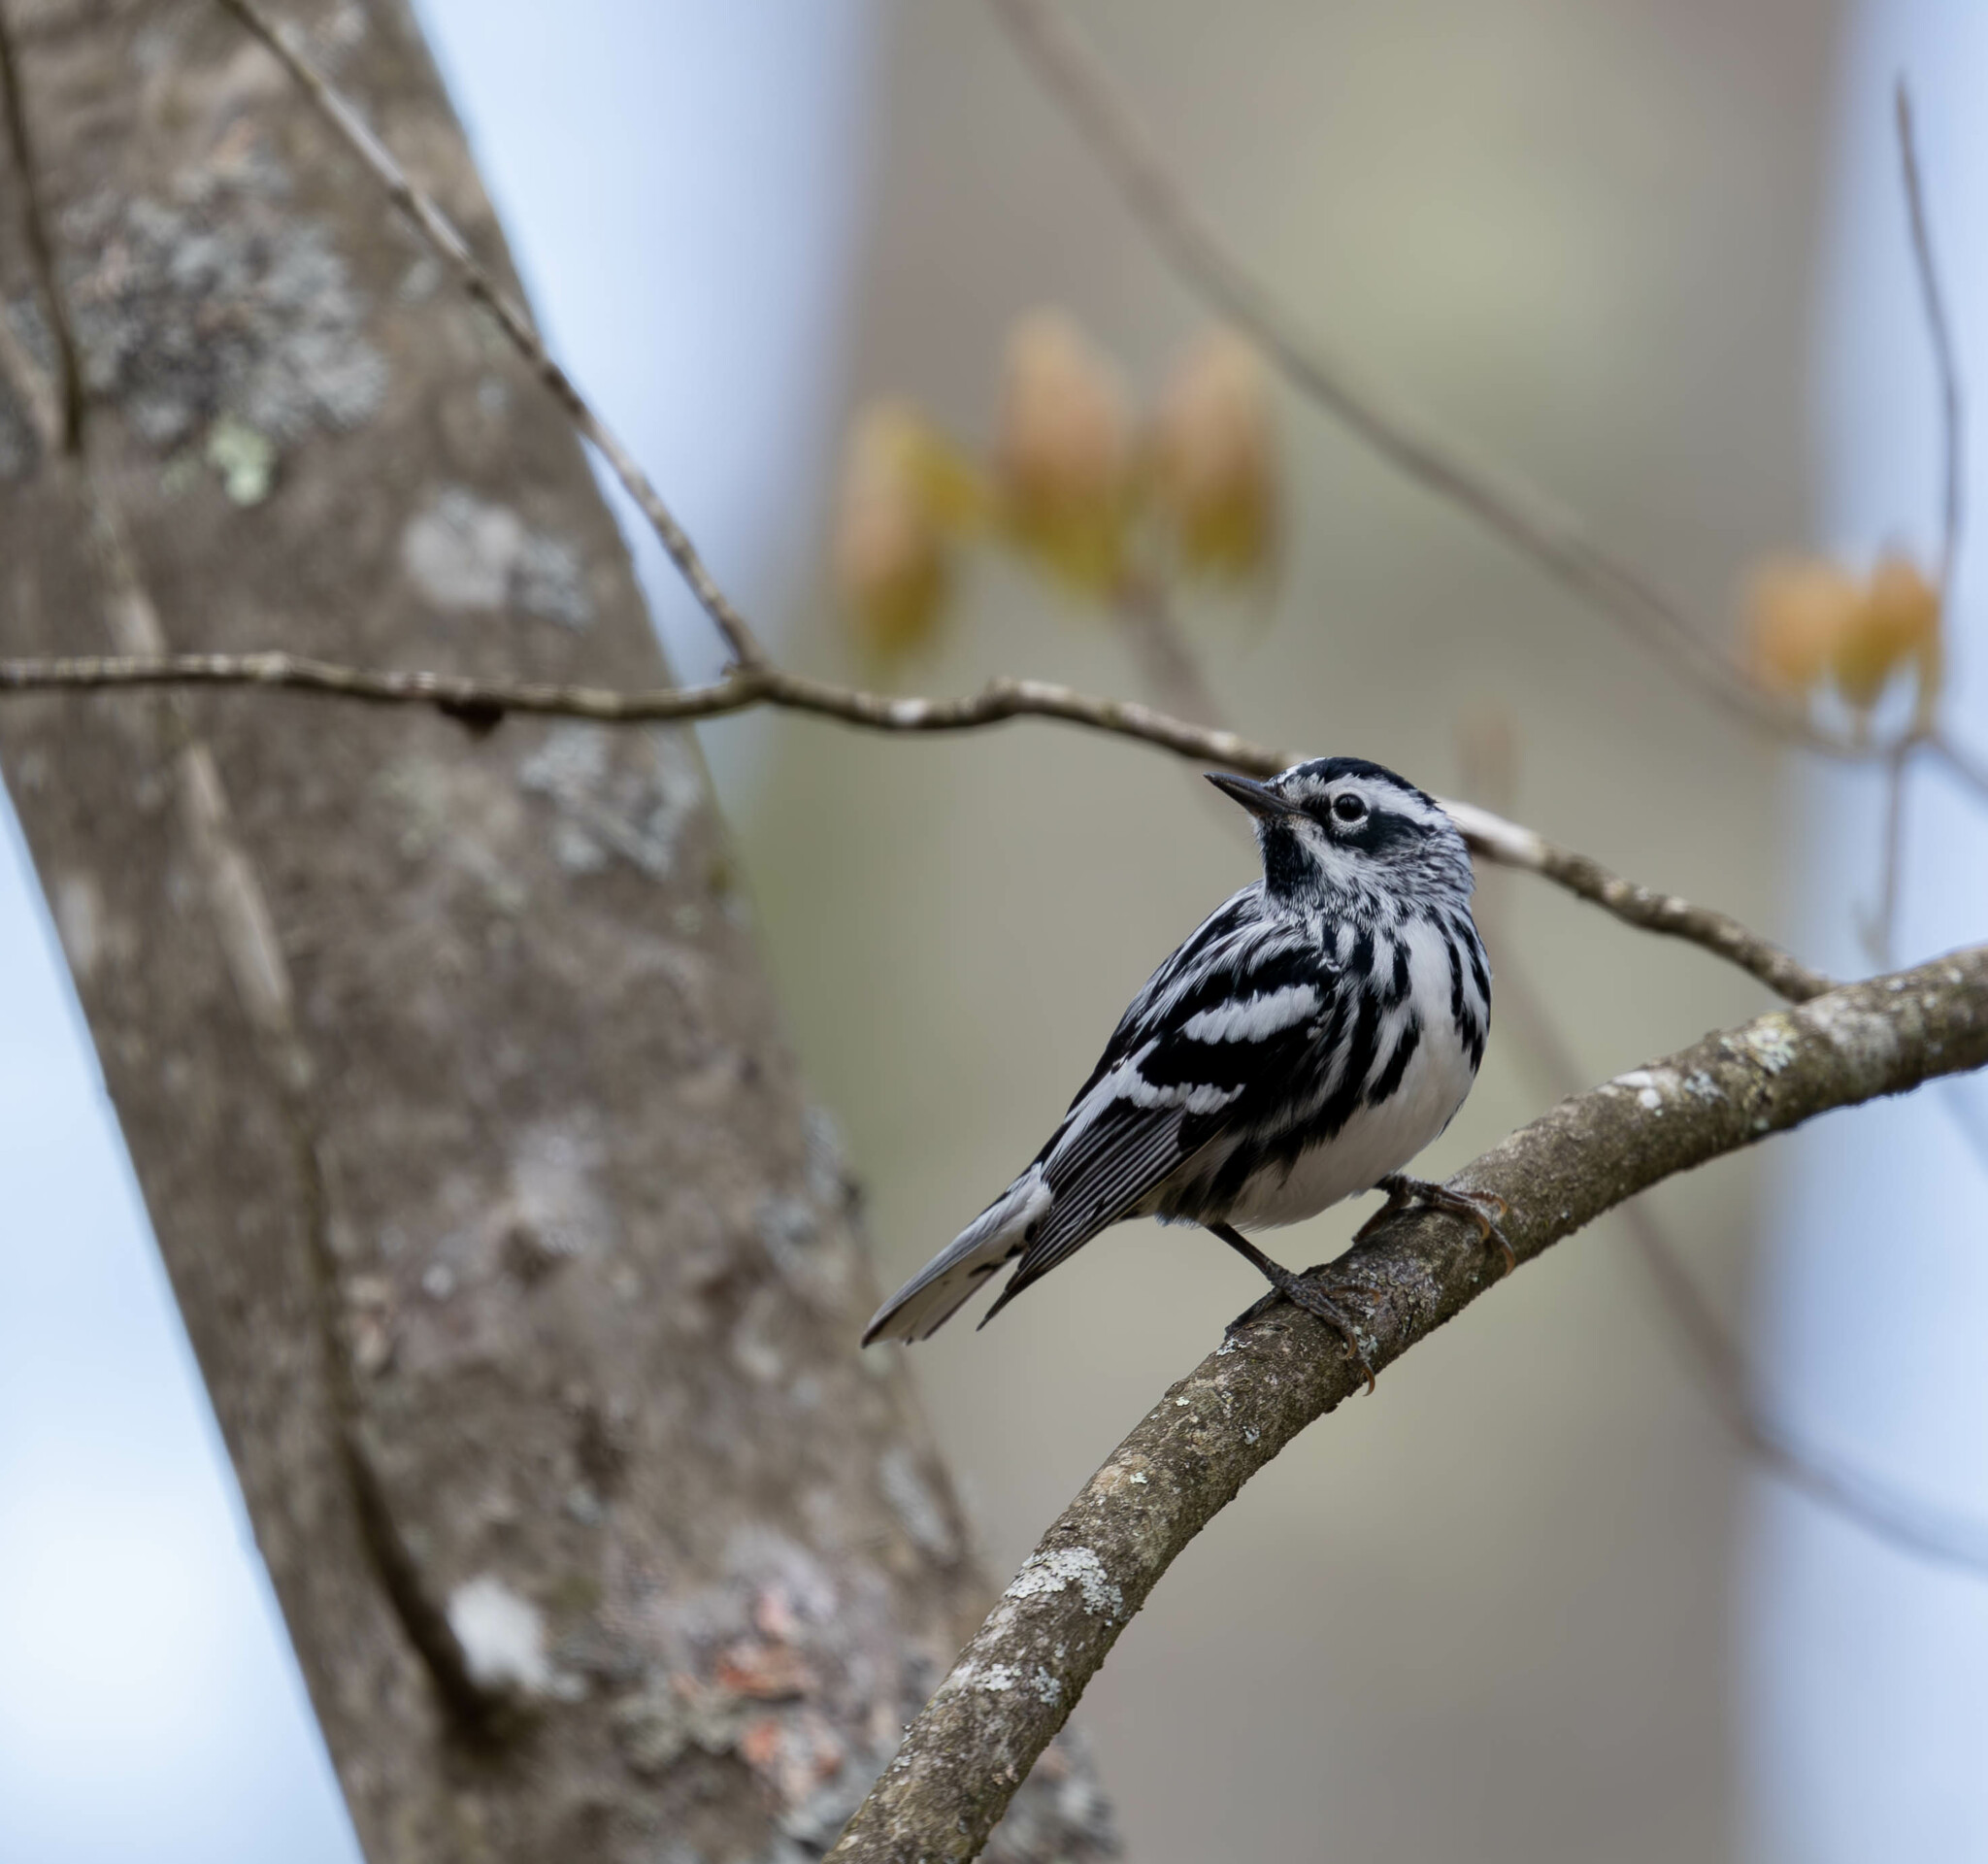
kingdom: Animalia
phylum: Chordata
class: Aves
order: Passeriformes
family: Parulidae
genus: Mniotilta
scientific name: Mniotilta varia
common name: Black-and-white warbler
